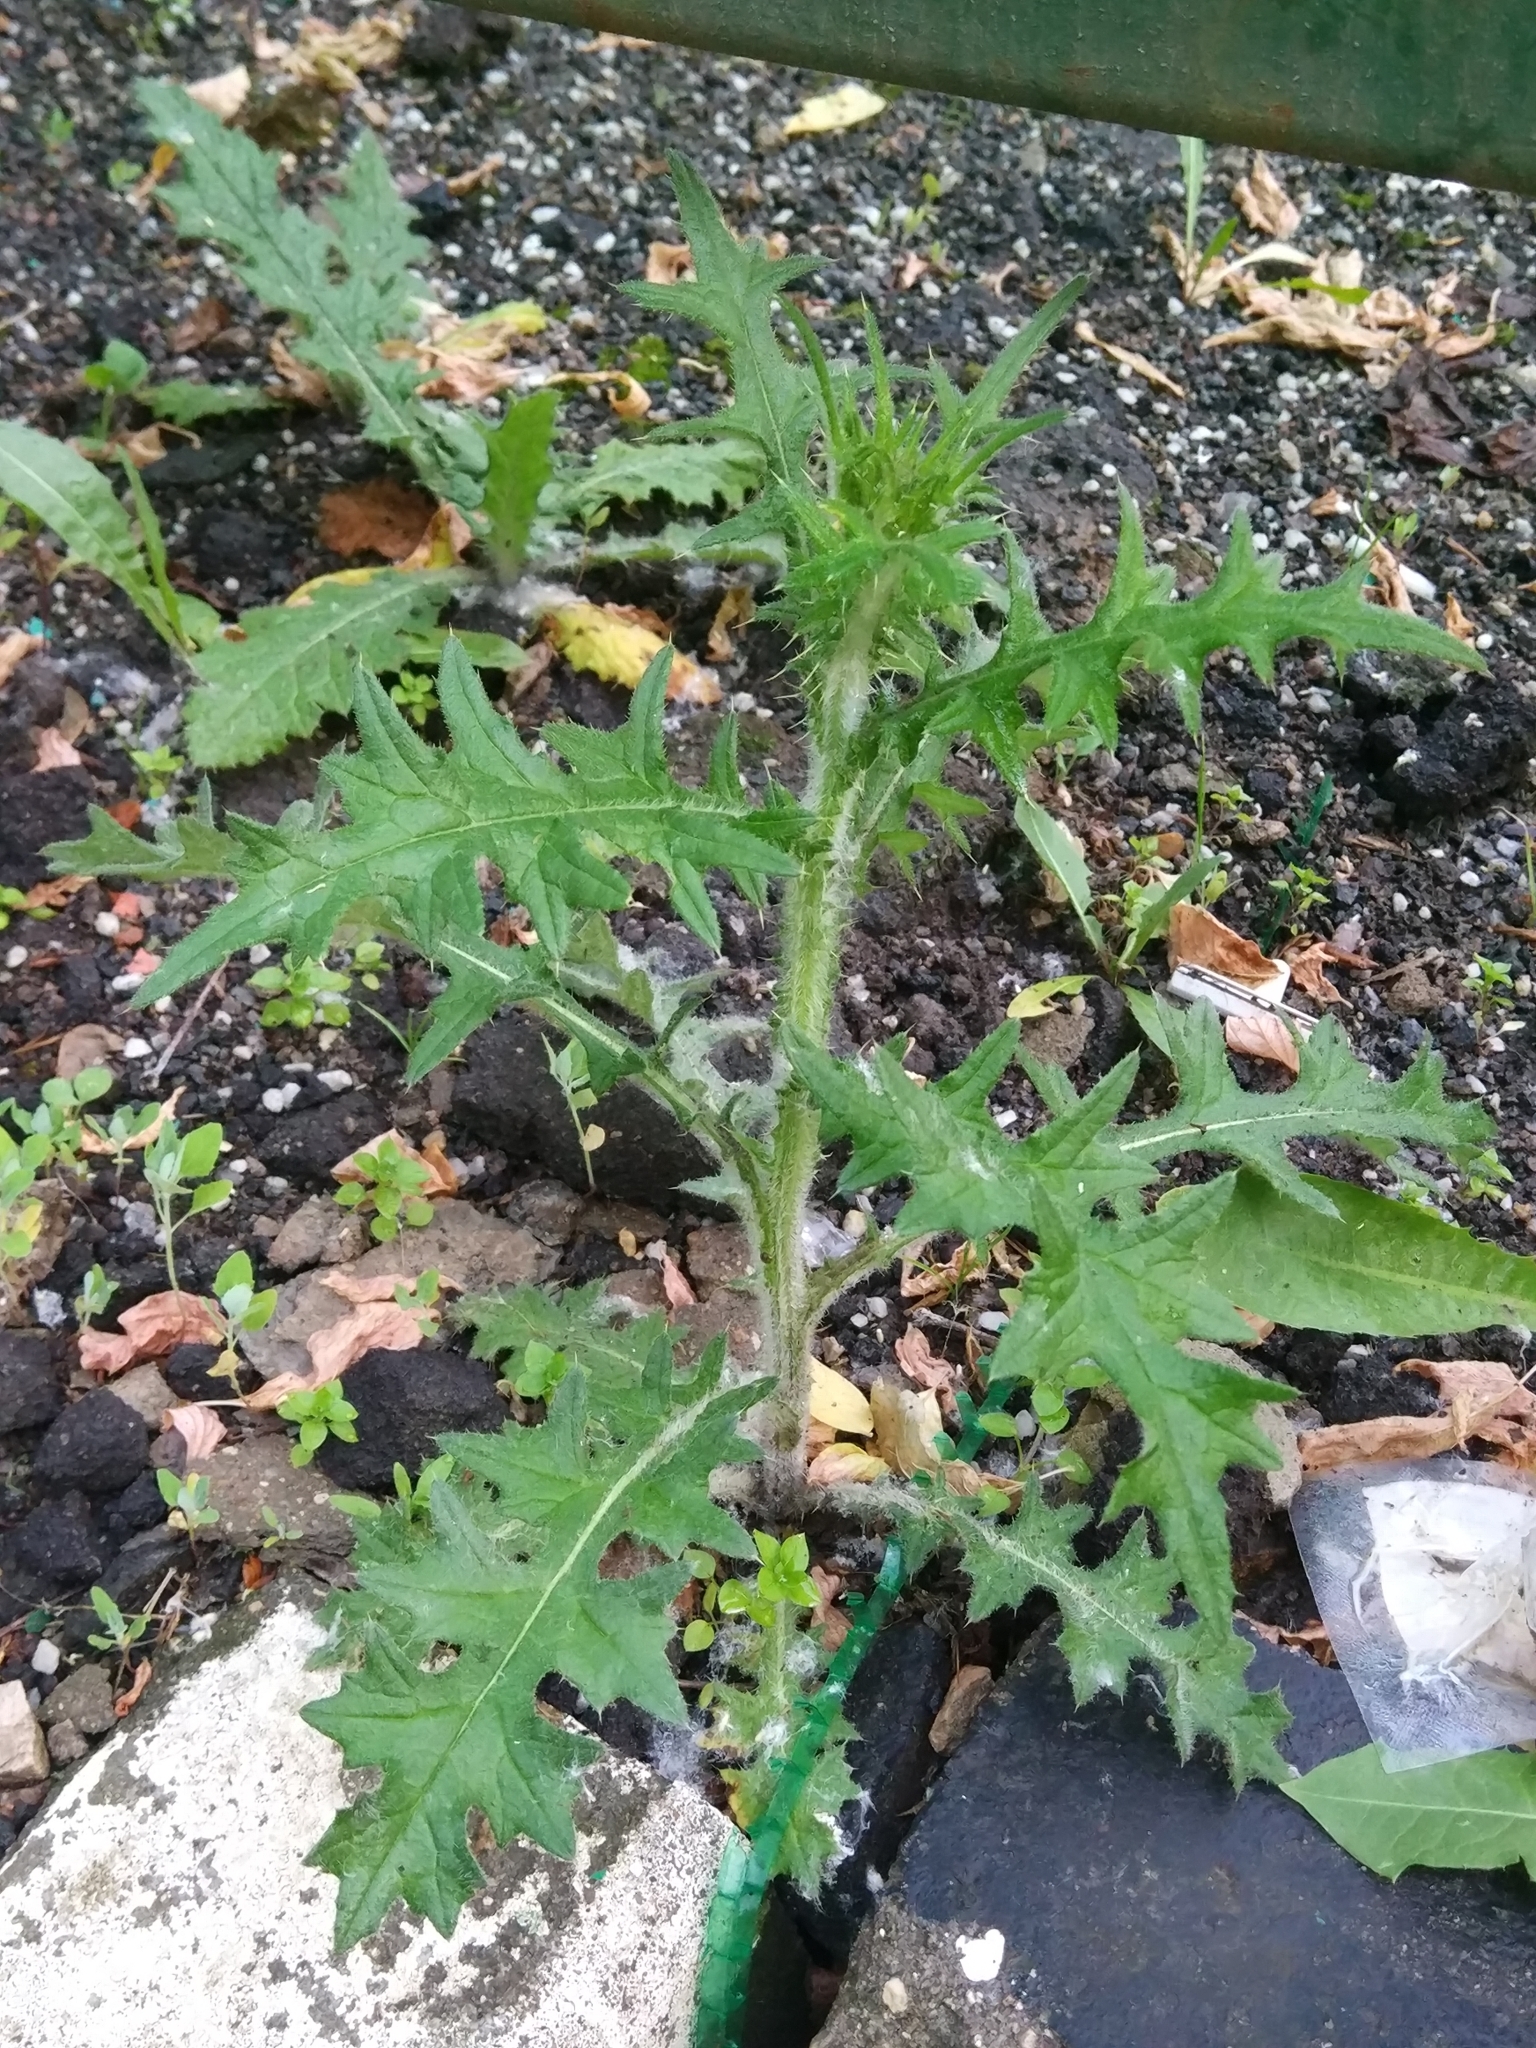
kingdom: Plantae
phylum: Tracheophyta
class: Magnoliopsida
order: Asterales
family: Asteraceae
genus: Cirsium
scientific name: Cirsium vulgare
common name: Bull thistle
